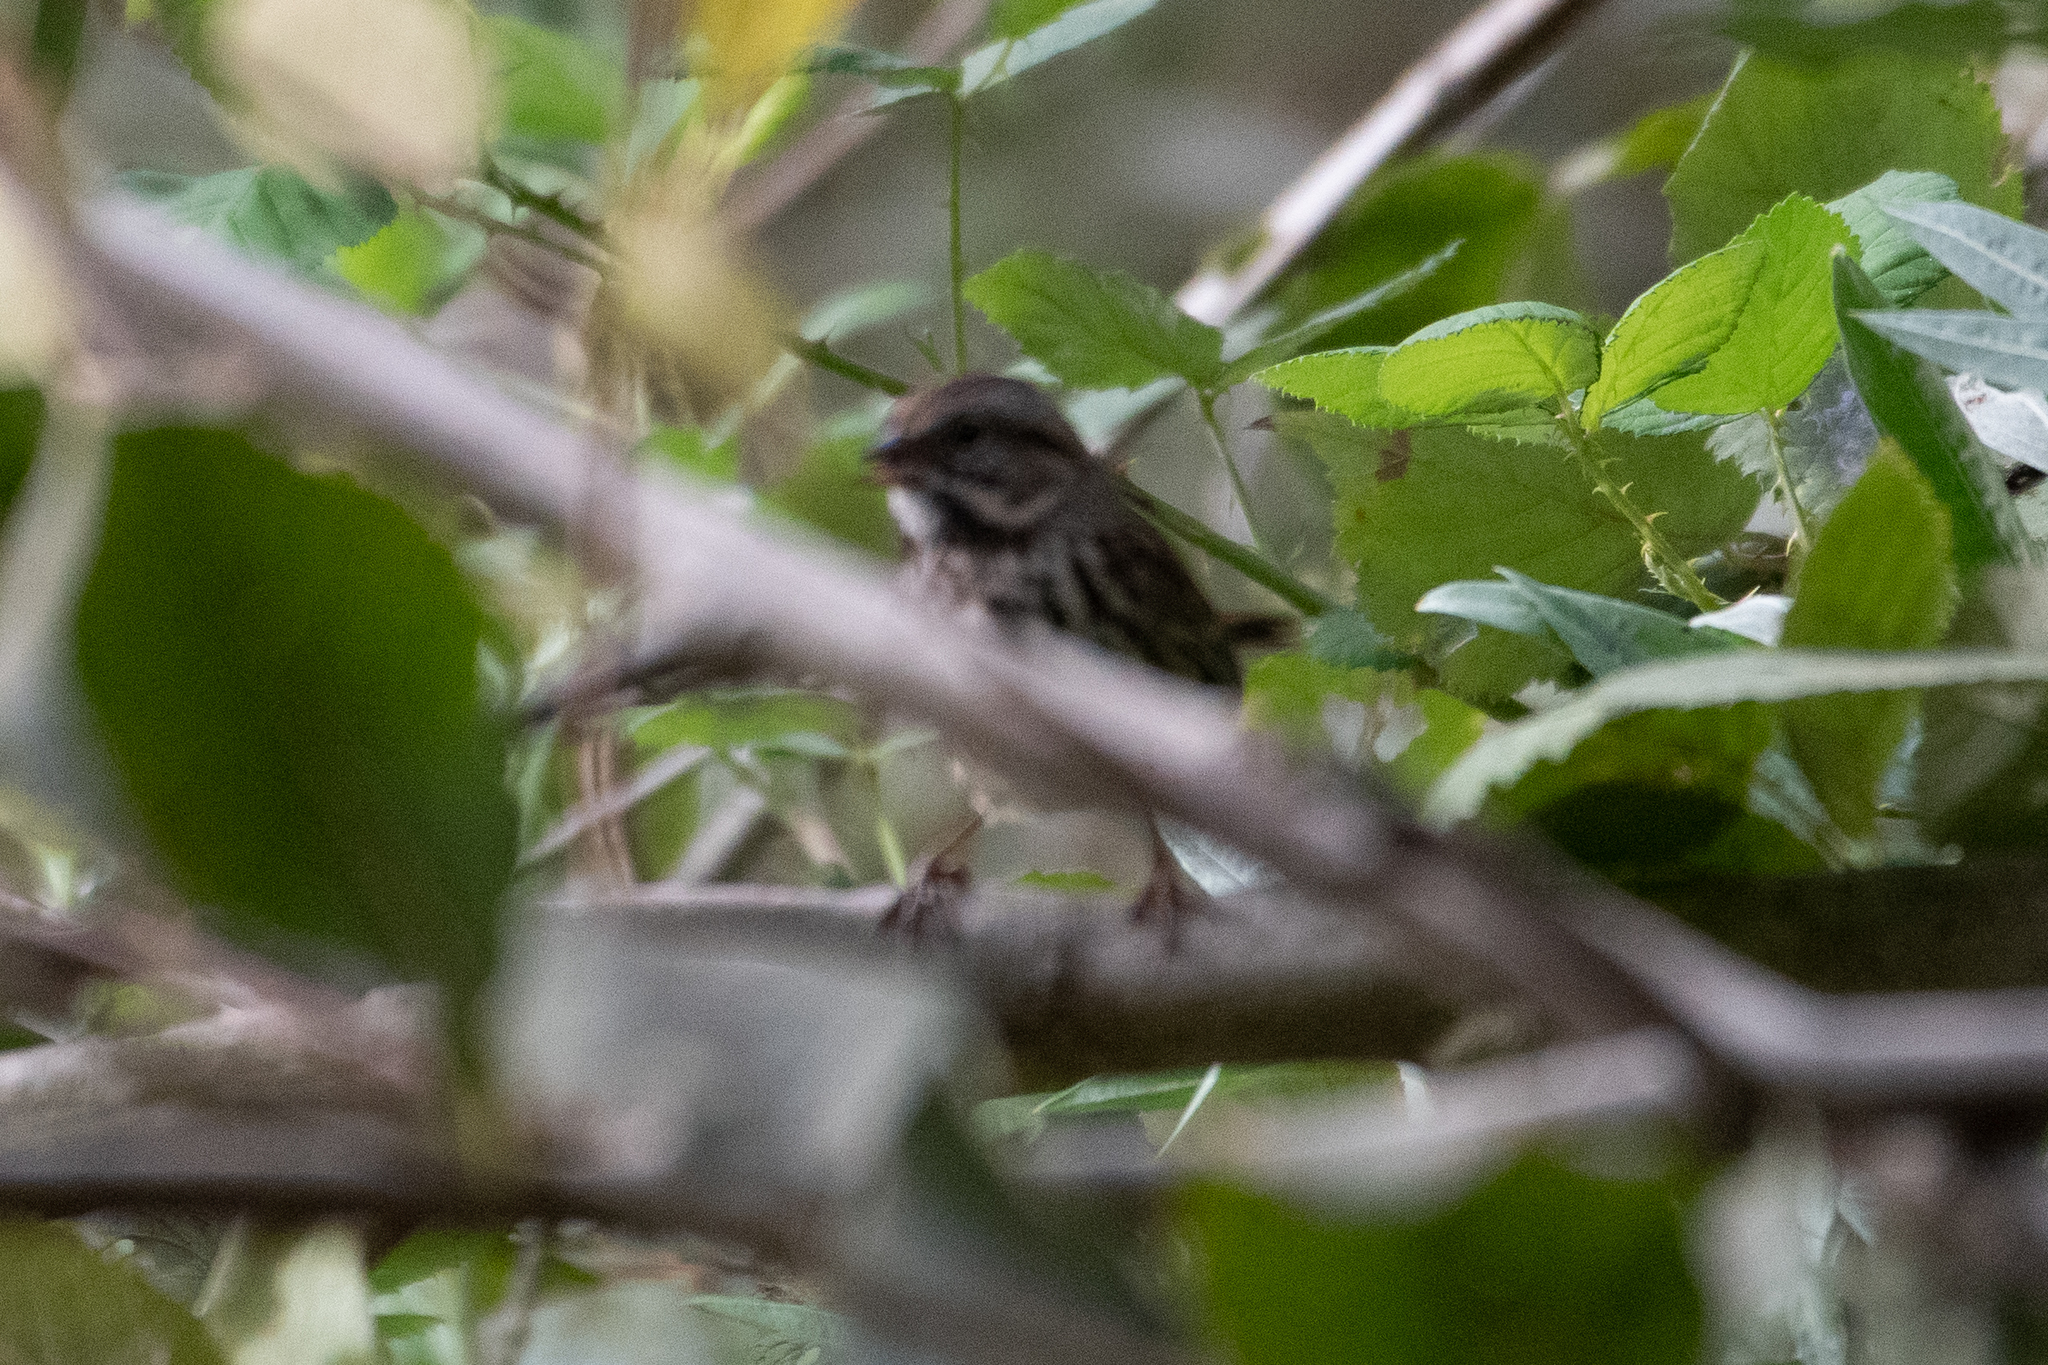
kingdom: Animalia
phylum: Chordata
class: Aves
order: Passeriformes
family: Passerellidae
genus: Melospiza
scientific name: Melospiza melodia
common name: Song sparrow
